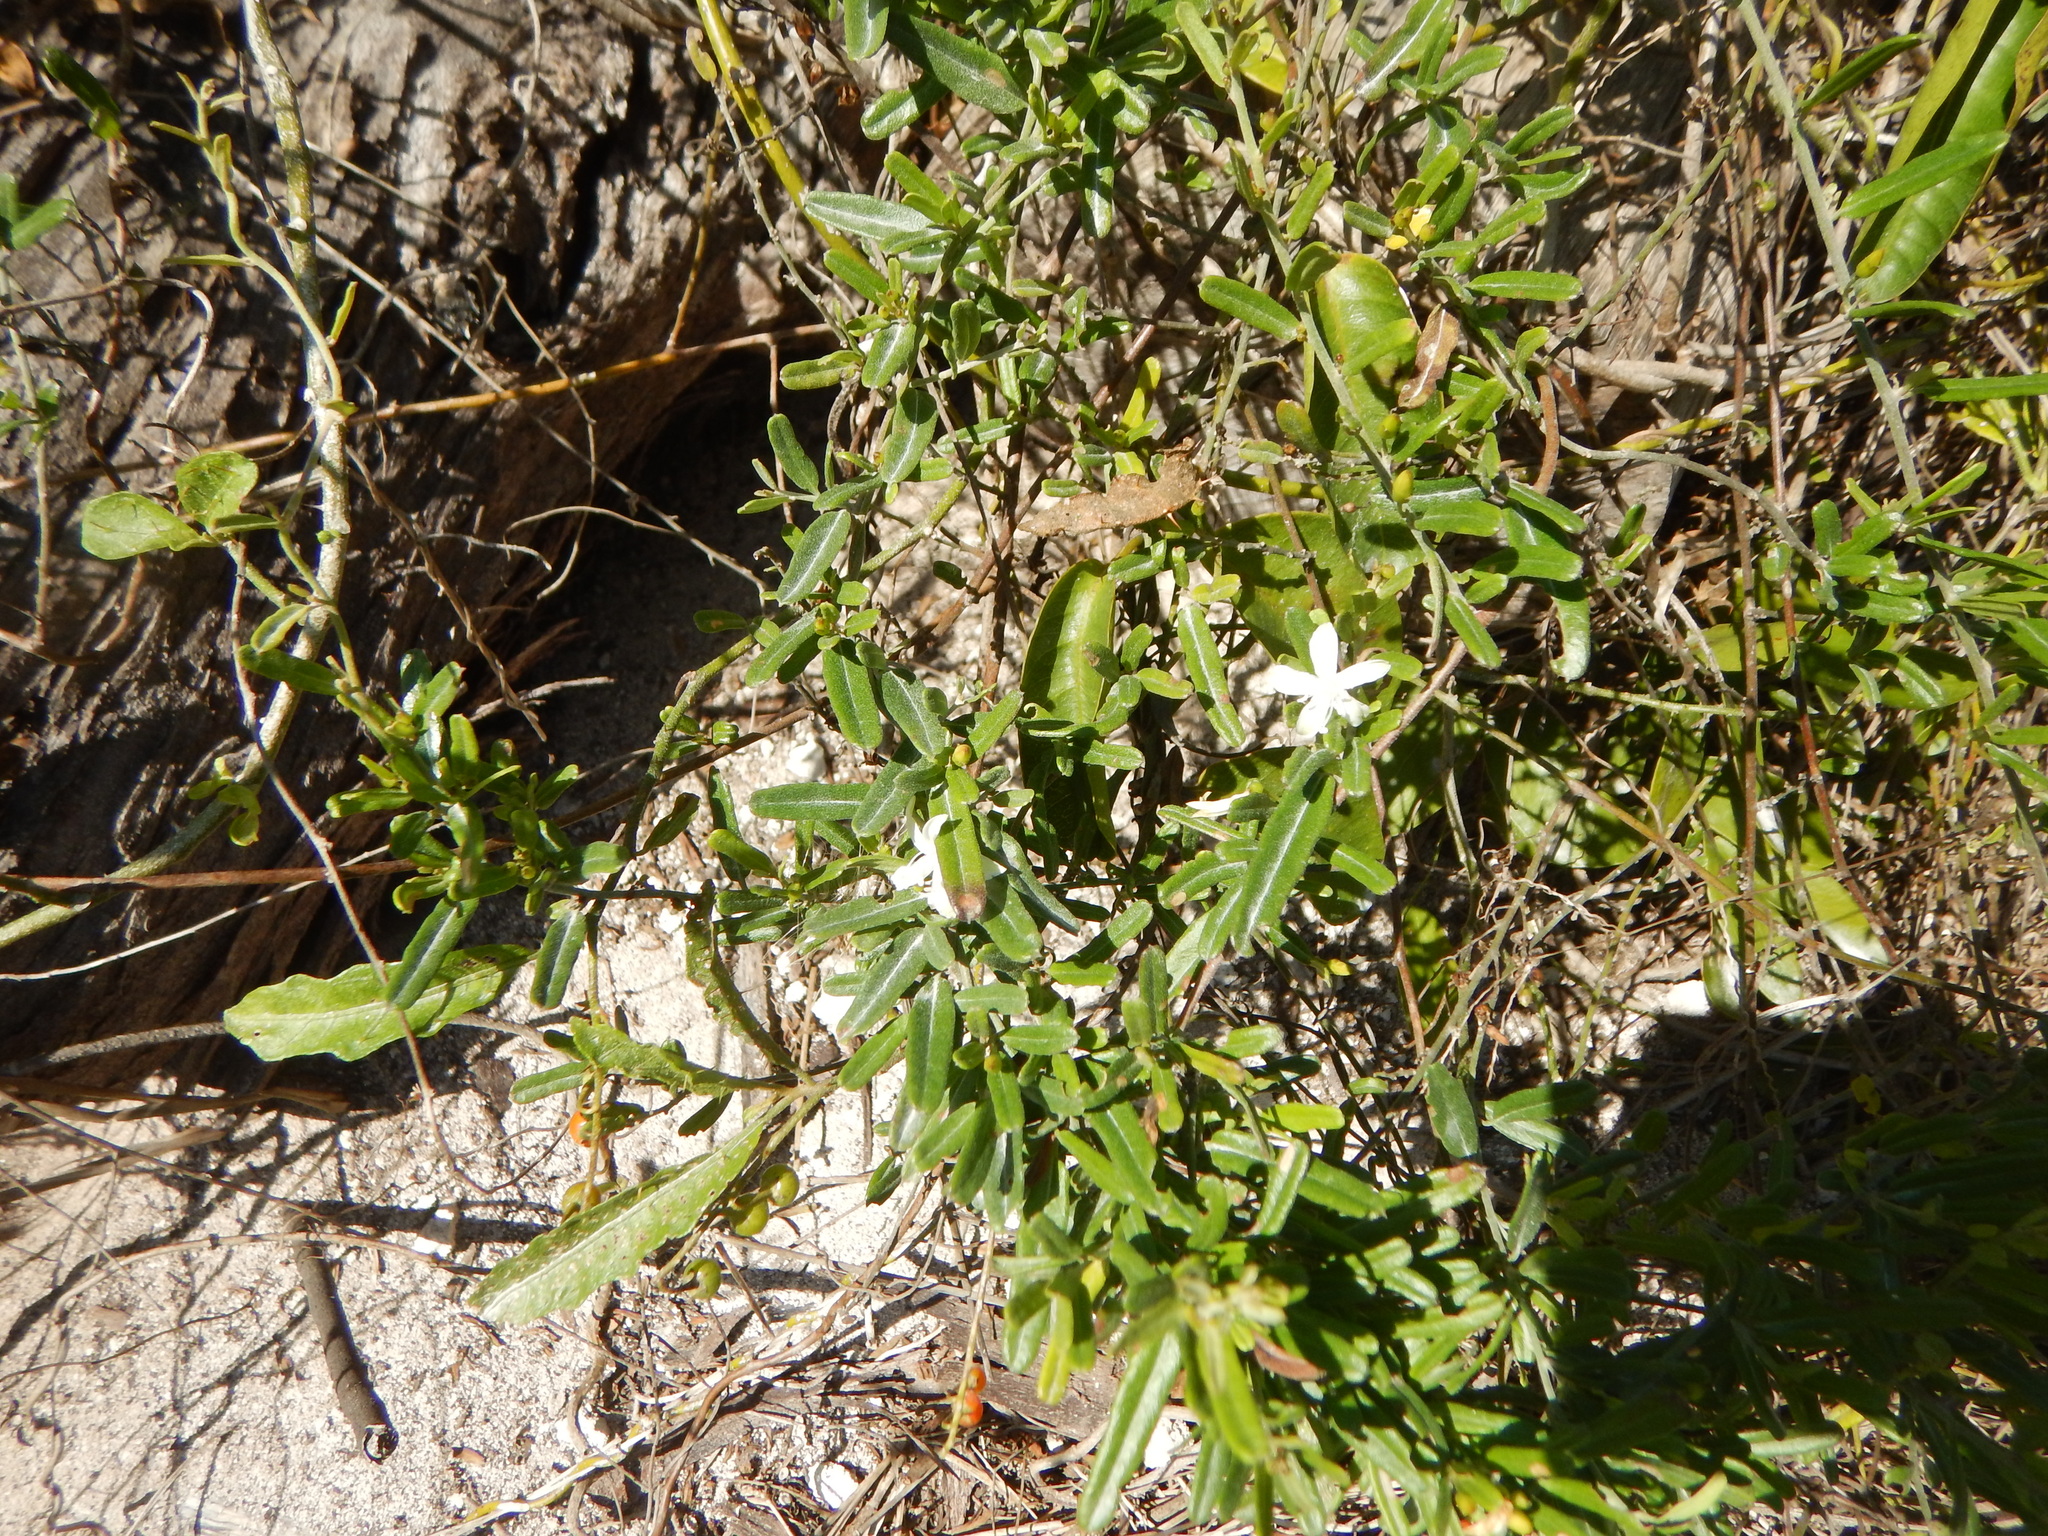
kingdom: Plantae
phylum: Tracheophyta
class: Magnoliopsida
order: Solanales
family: Convolvulaceae
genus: Jacquemontia
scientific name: Jacquemontia havanensis
